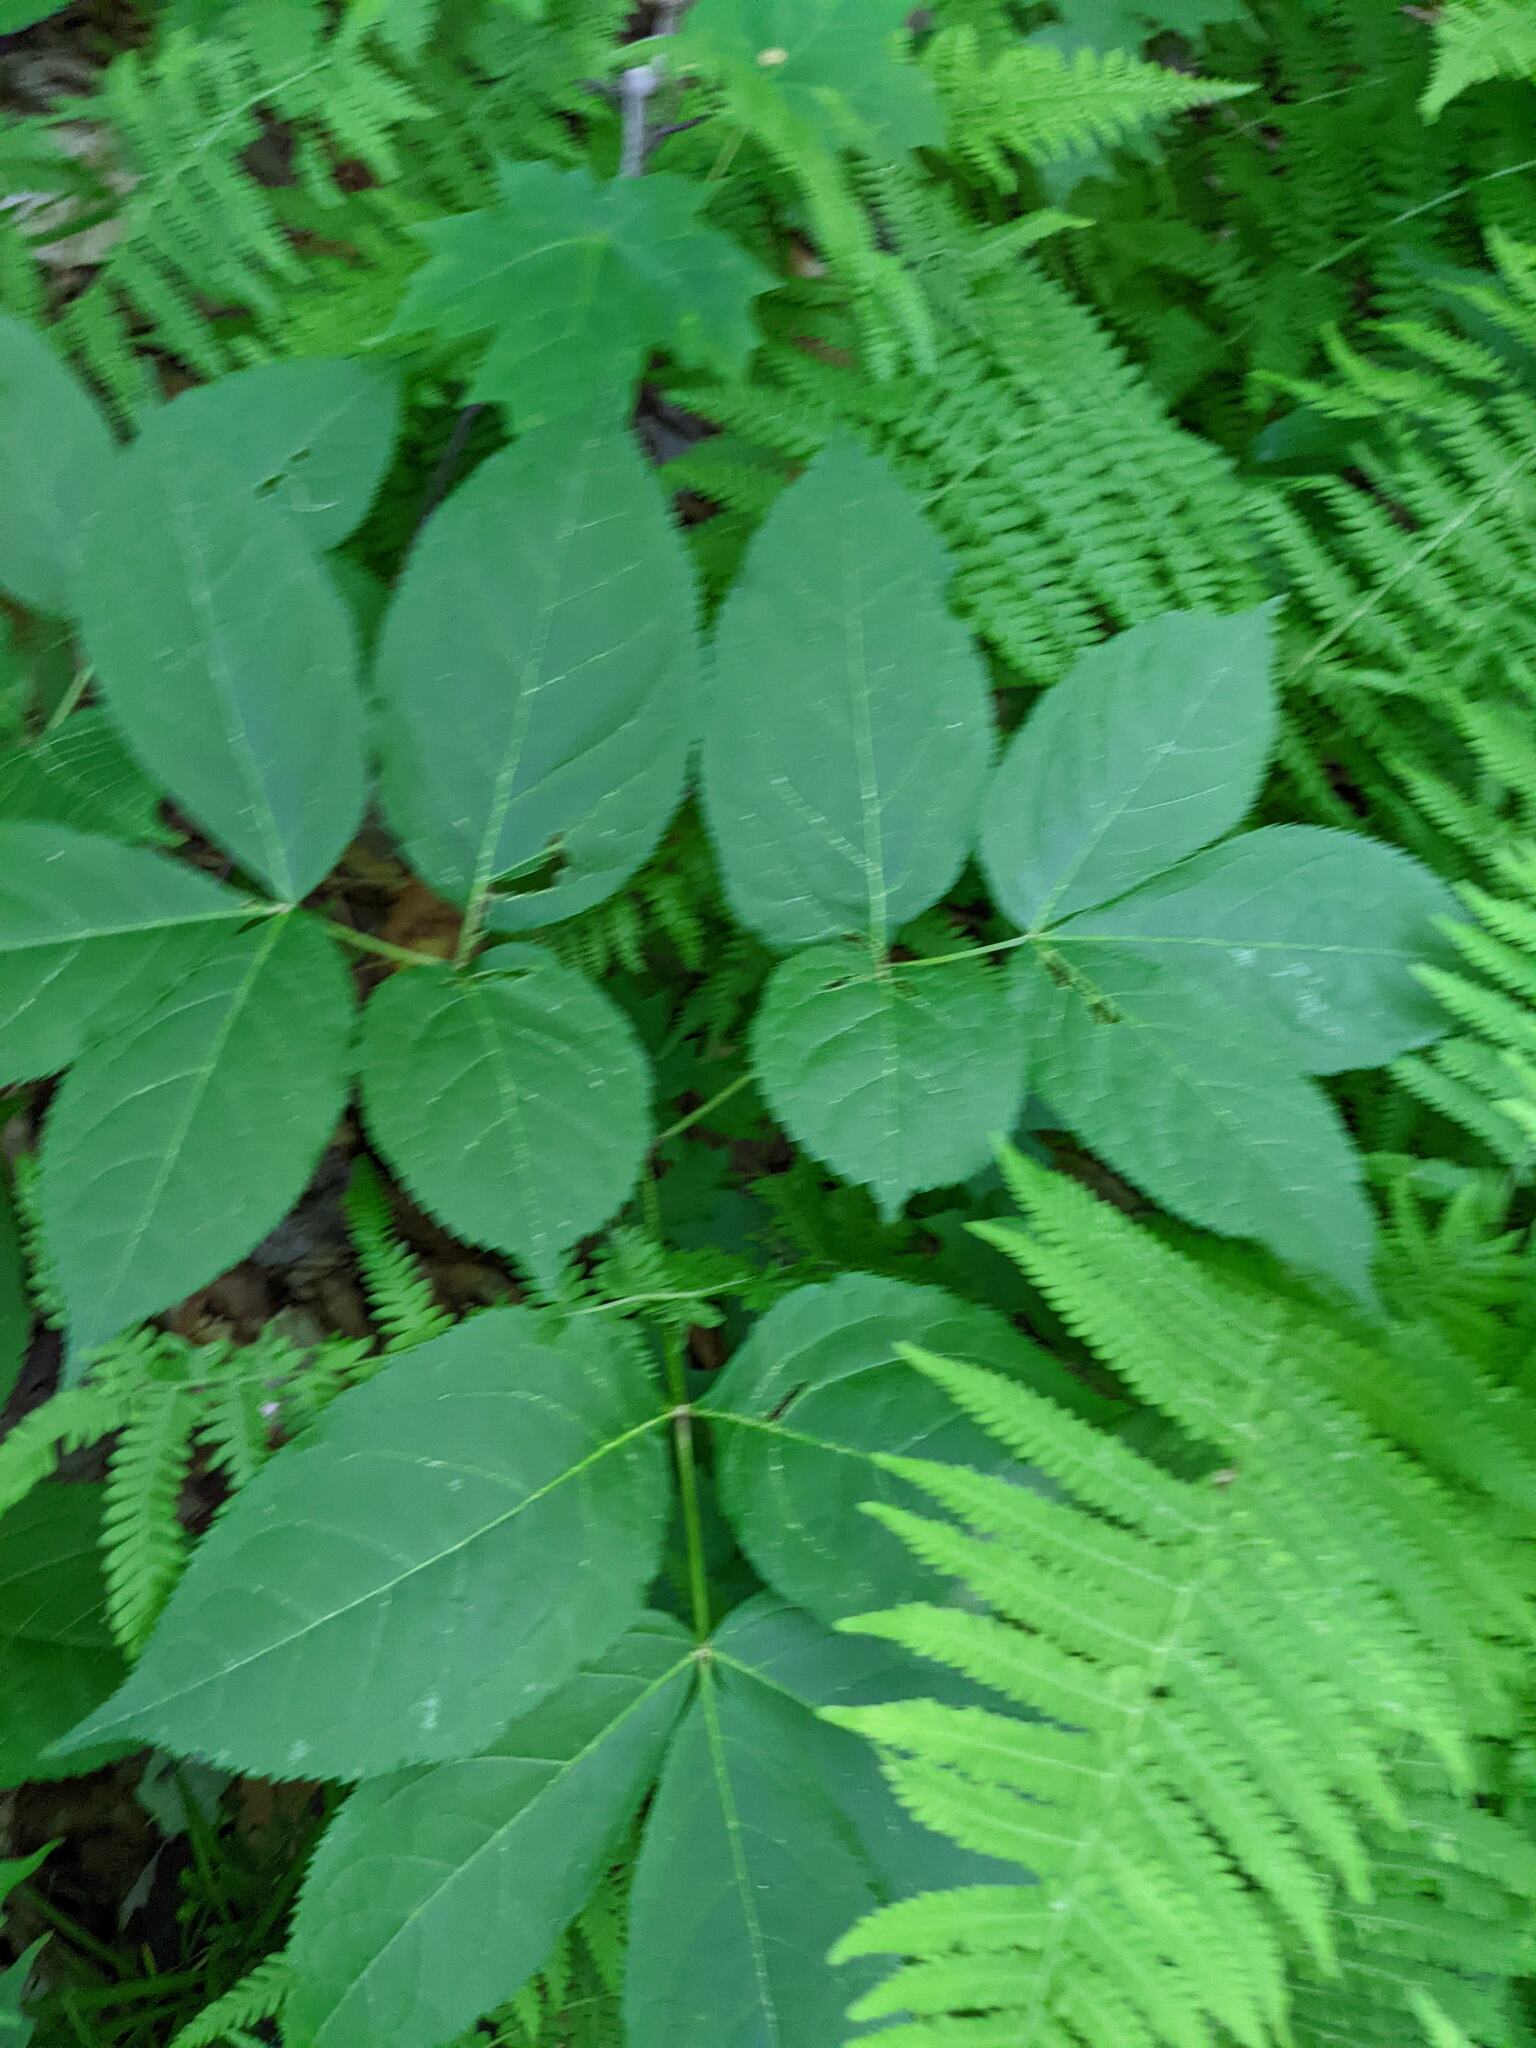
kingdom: Plantae
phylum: Tracheophyta
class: Magnoliopsida
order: Apiales
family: Araliaceae
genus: Aralia
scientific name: Aralia nudicaulis
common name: Wild sarsaparilla
